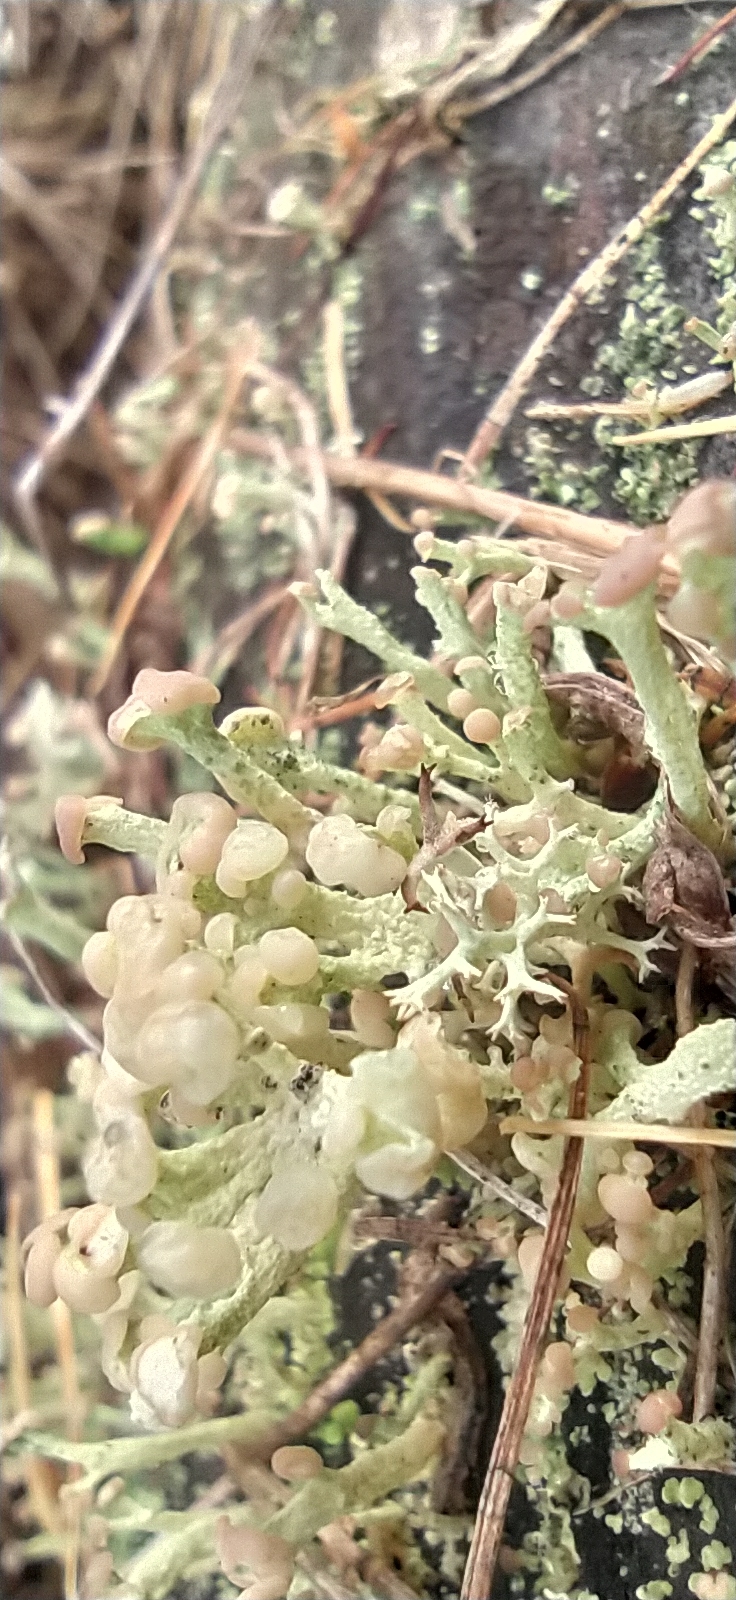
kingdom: Fungi
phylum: Ascomycota
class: Lecanoromycetes
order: Lecanorales
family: Cladoniaceae
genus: Cladonia
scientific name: Cladonia botrytes
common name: Stump lichen
